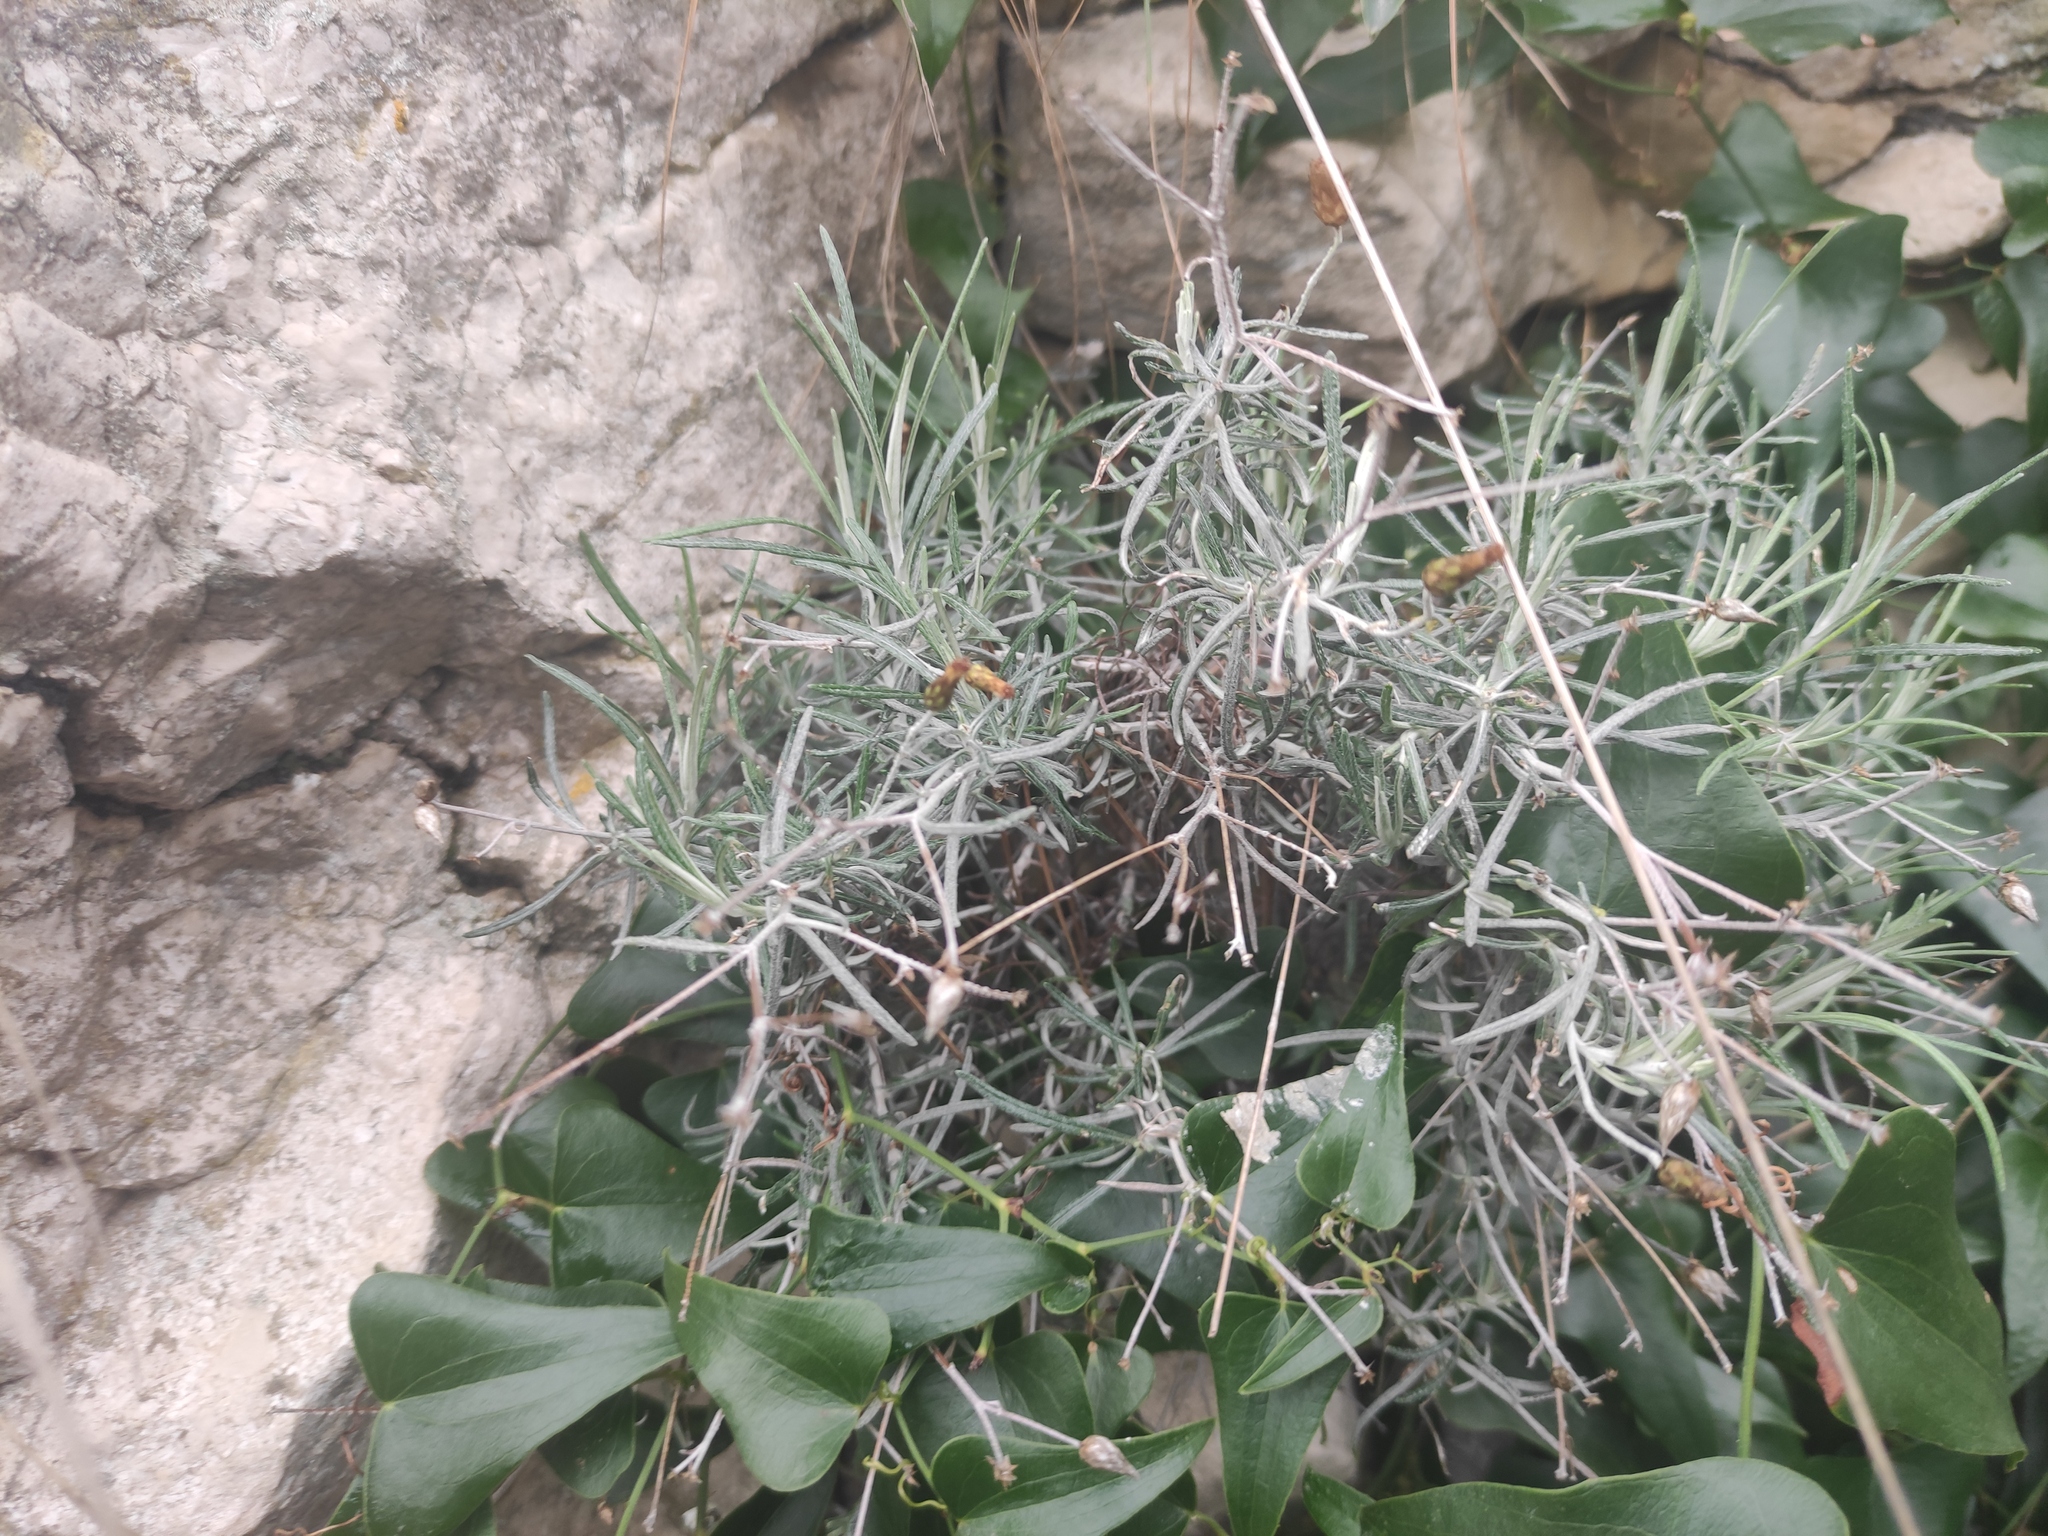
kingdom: Plantae
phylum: Tracheophyta
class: Magnoliopsida
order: Asterales
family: Asteraceae
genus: Phagnalon
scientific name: Phagnalon sordidum
